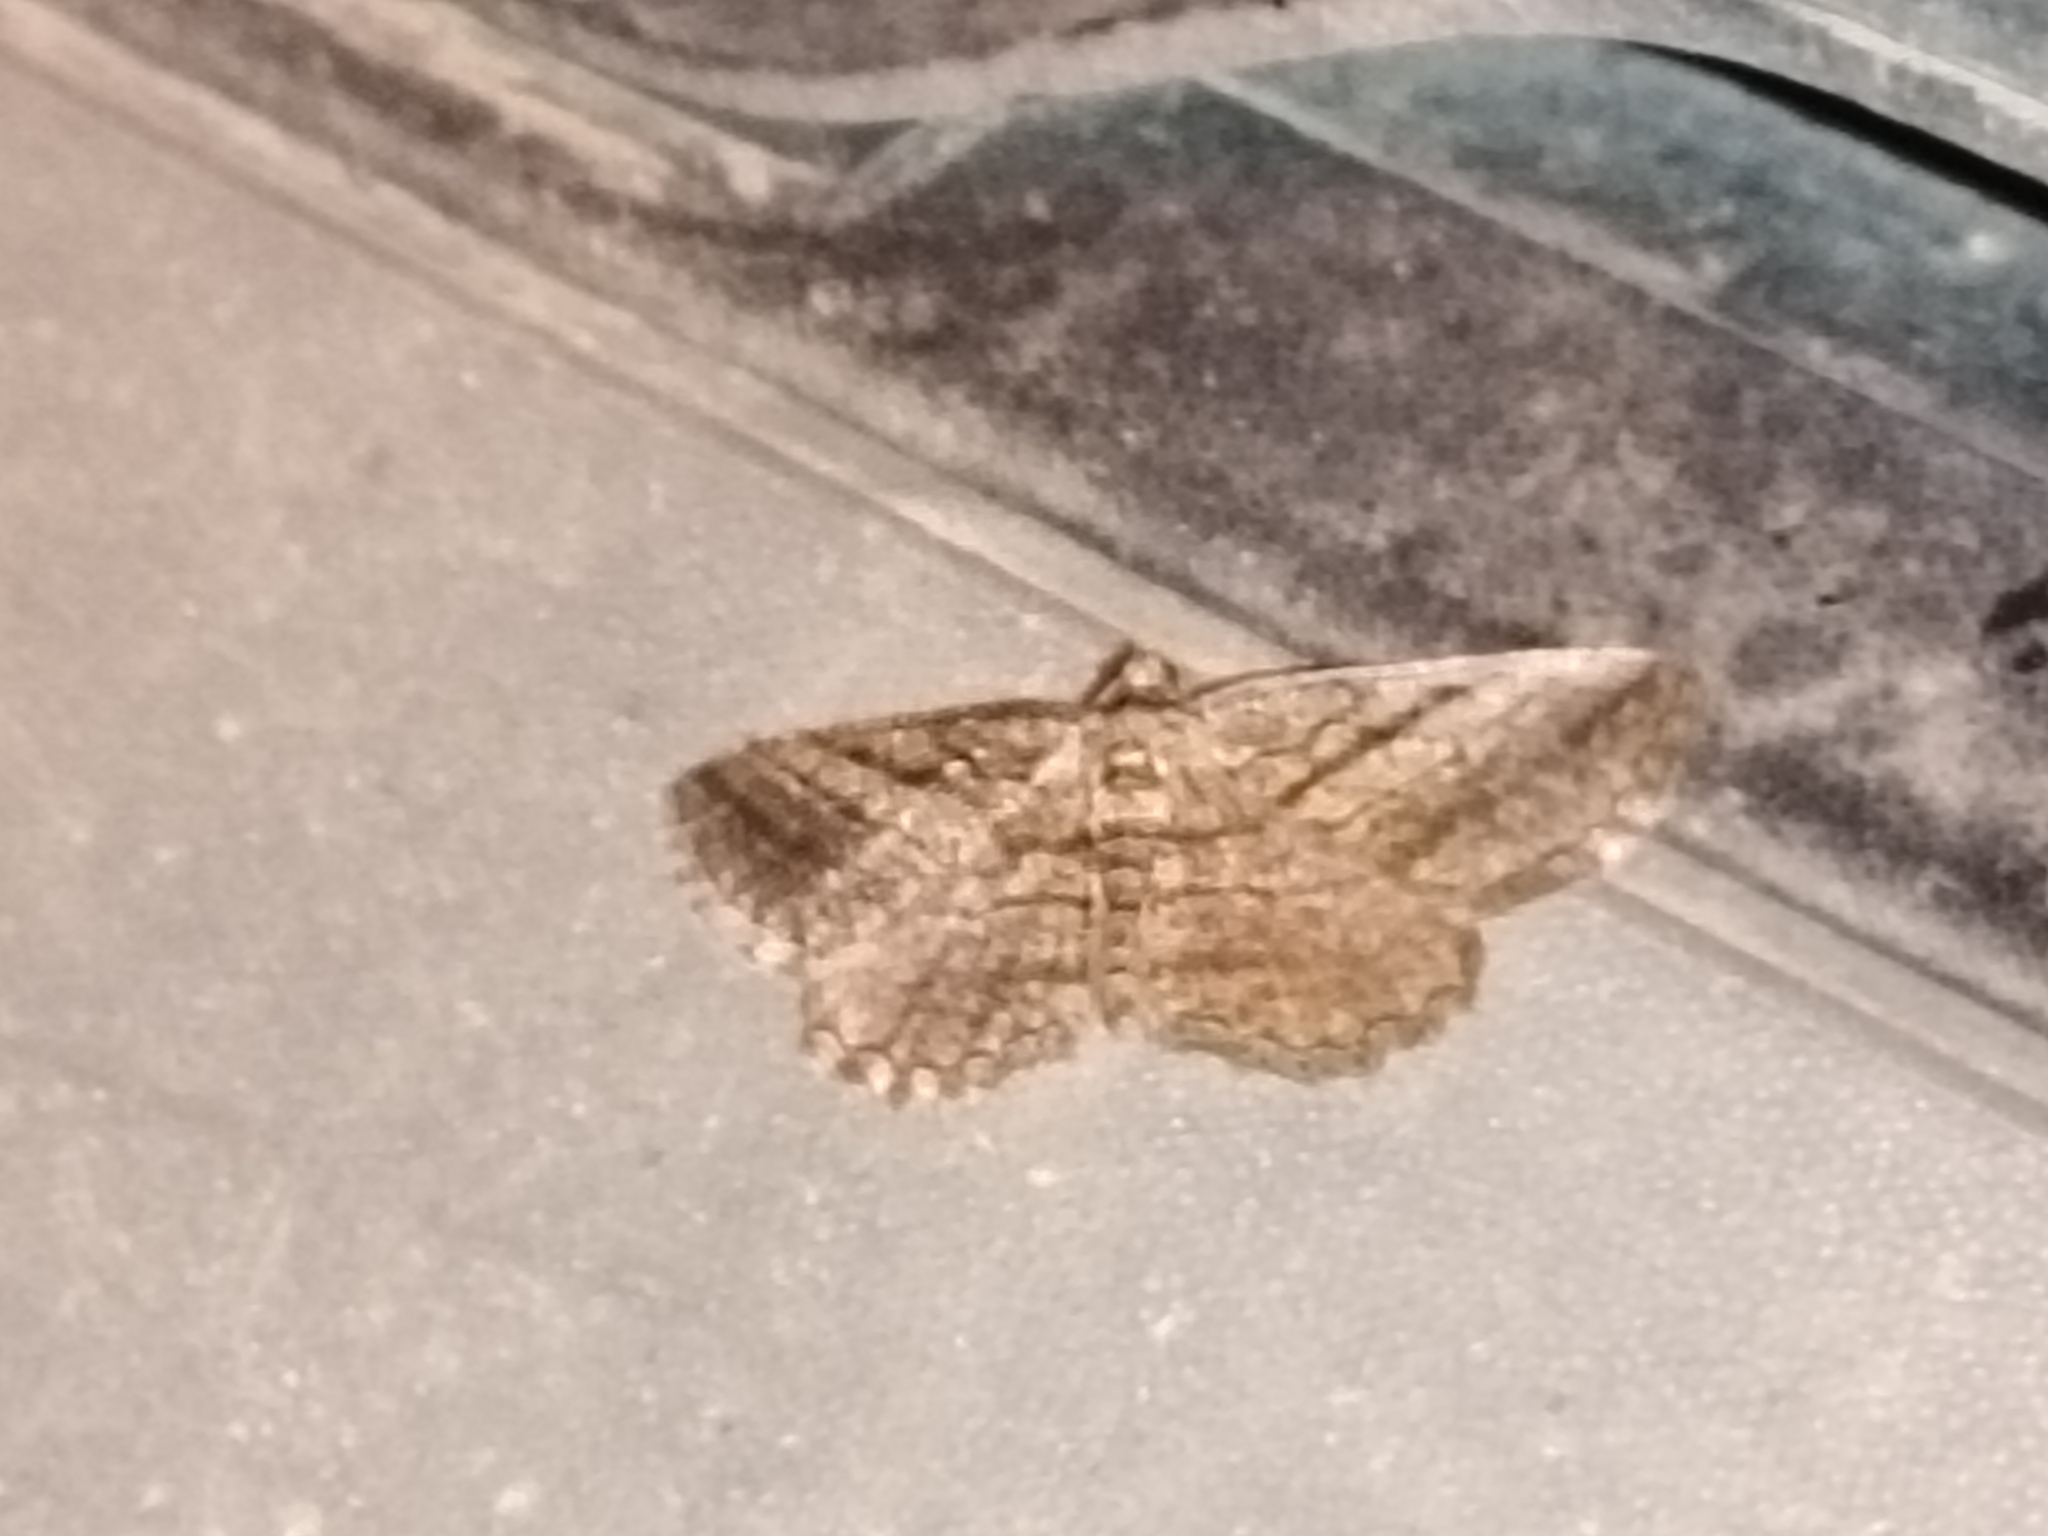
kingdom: Animalia
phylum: Arthropoda
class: Insecta
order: Lepidoptera
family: Geometridae
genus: Rhoptria
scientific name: Rhoptria asperaria
